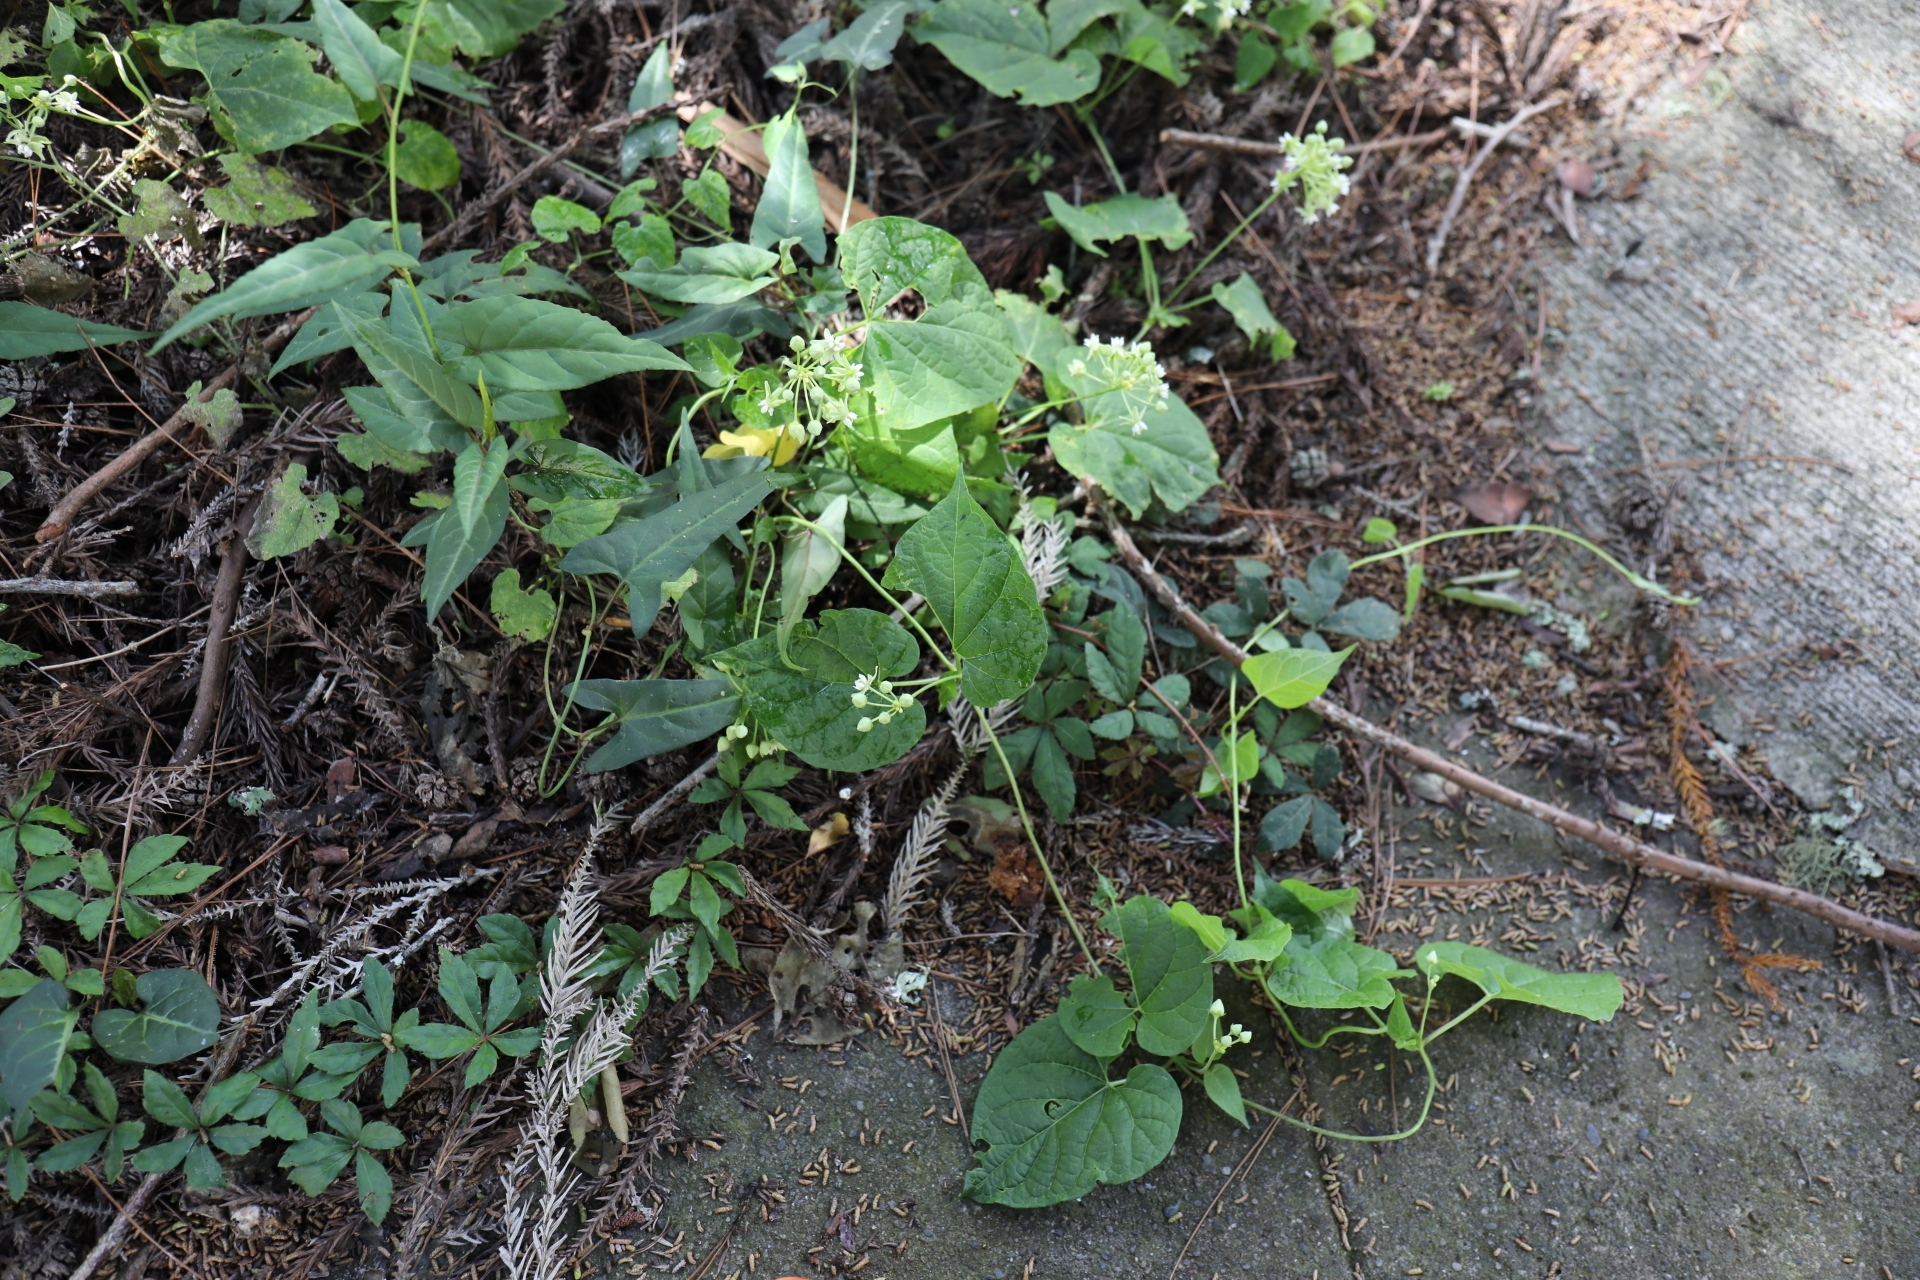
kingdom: Plantae
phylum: Tracheophyta
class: Magnoliopsida
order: Gentianales
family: Apocynaceae
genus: Cynanchum
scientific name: Cynanchum boudieri
